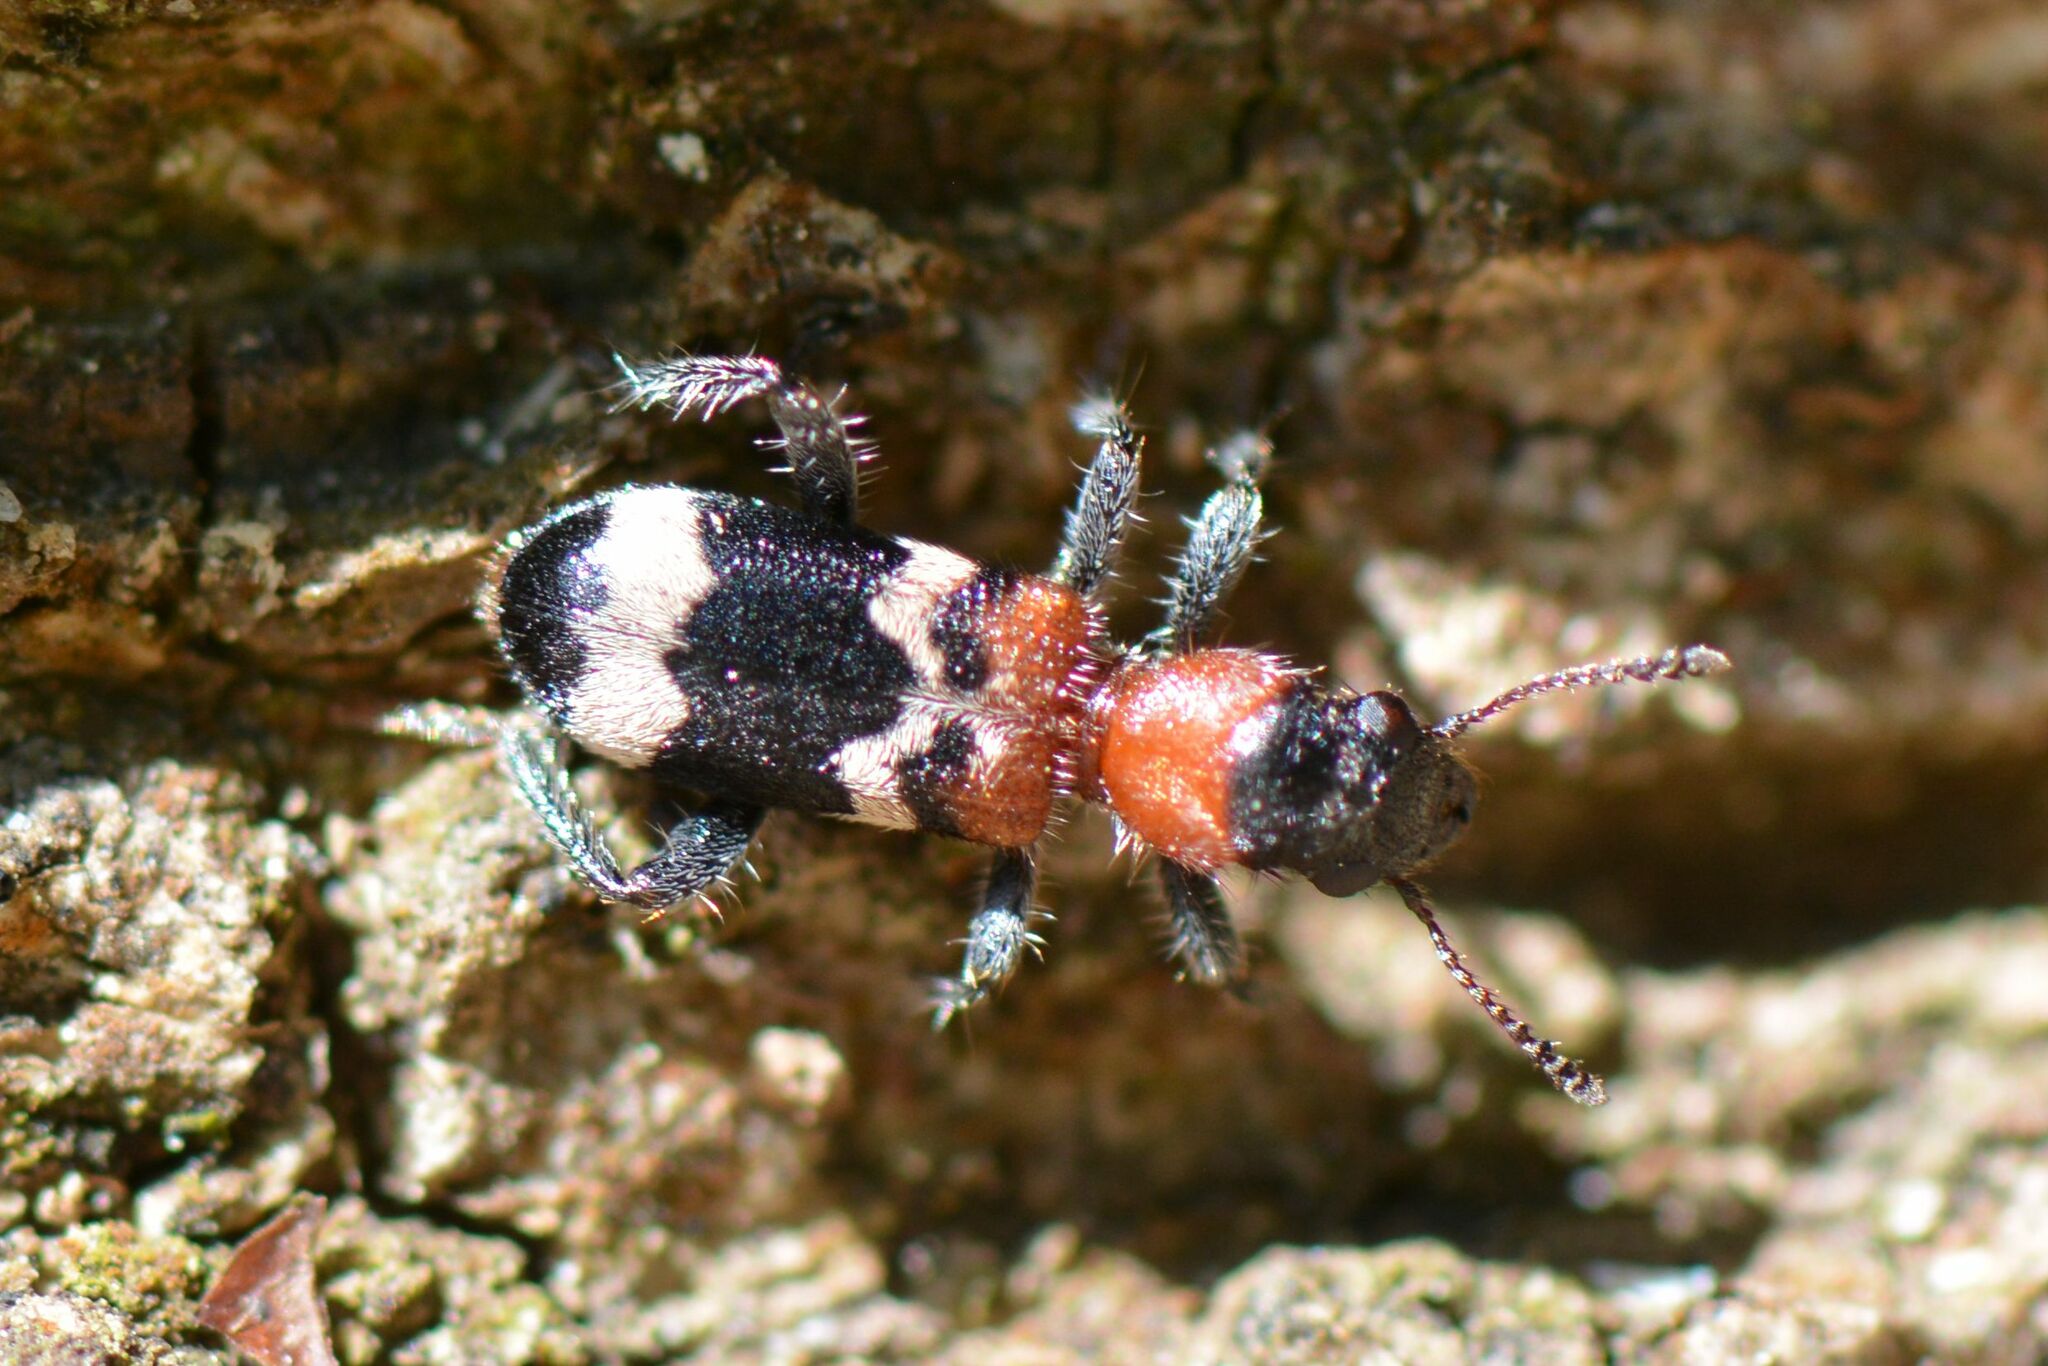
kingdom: Animalia
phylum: Arthropoda
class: Insecta
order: Coleoptera
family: Cleridae
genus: Thanasimus
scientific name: Thanasimus formicarius
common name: Ant beetle
